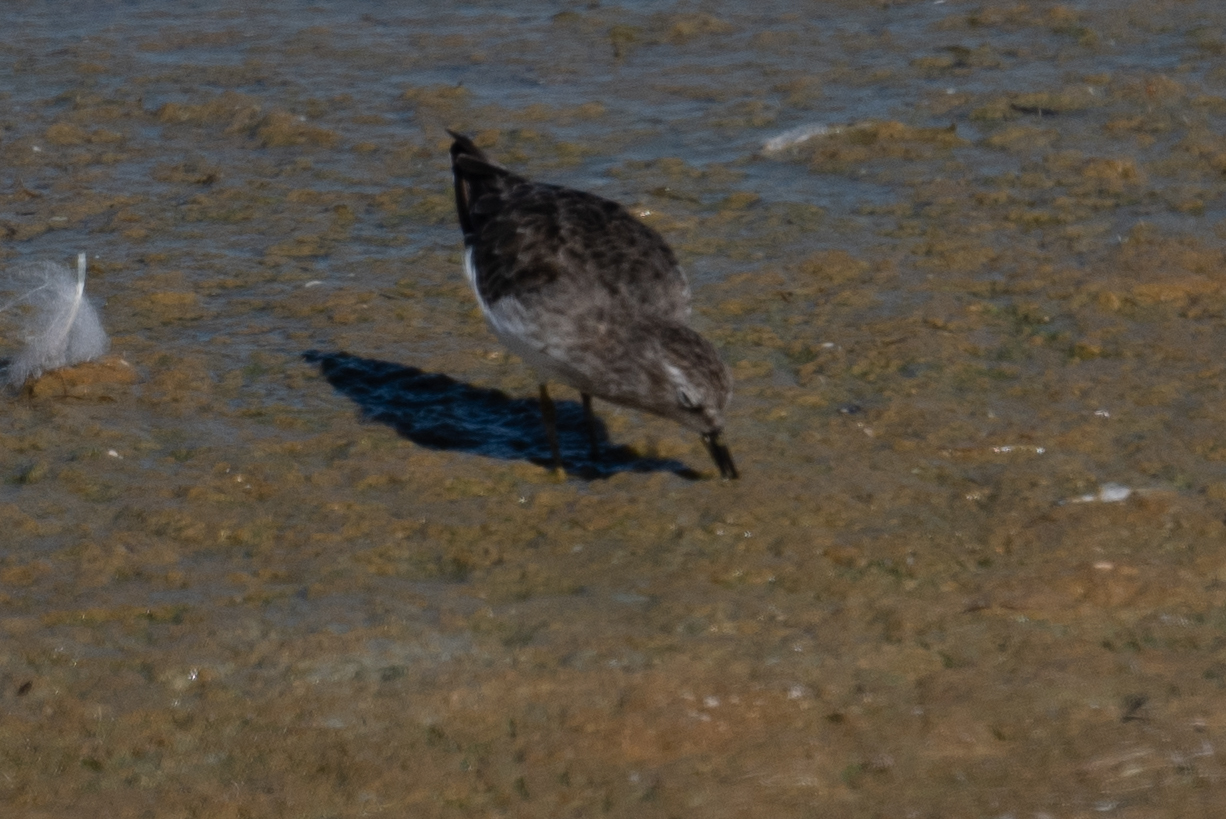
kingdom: Animalia
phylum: Chordata
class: Aves
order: Charadriiformes
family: Scolopacidae
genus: Calidris
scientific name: Calidris minutilla
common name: Least sandpiper
